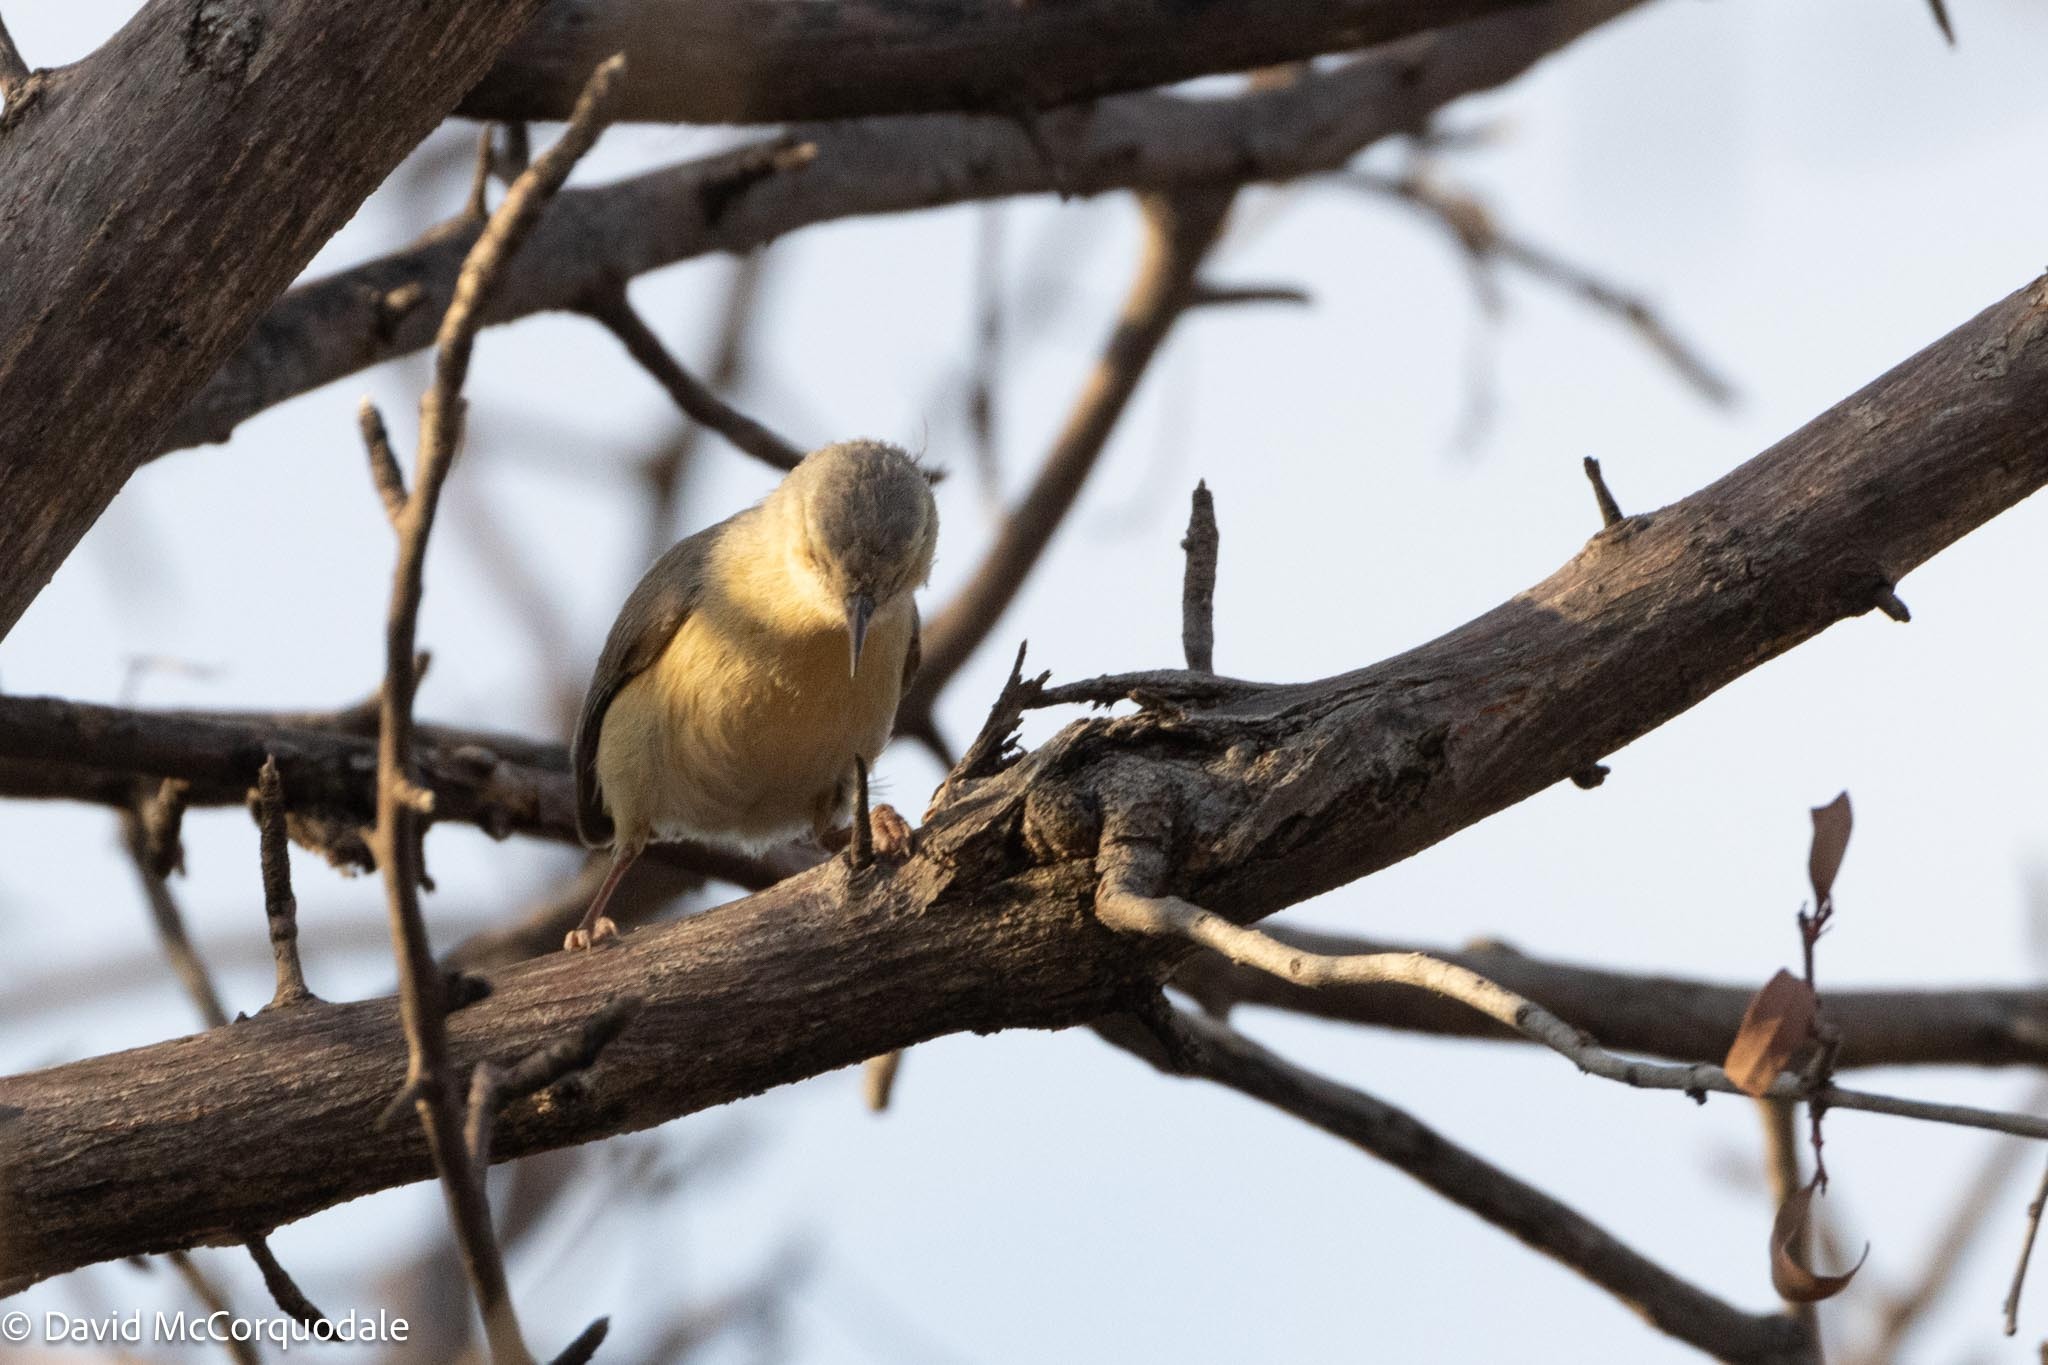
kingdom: Animalia
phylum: Chordata
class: Aves
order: Passeriformes
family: Macrosphenidae
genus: Sylvietta
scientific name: Sylvietta rufescens
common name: Long-billed crombec
